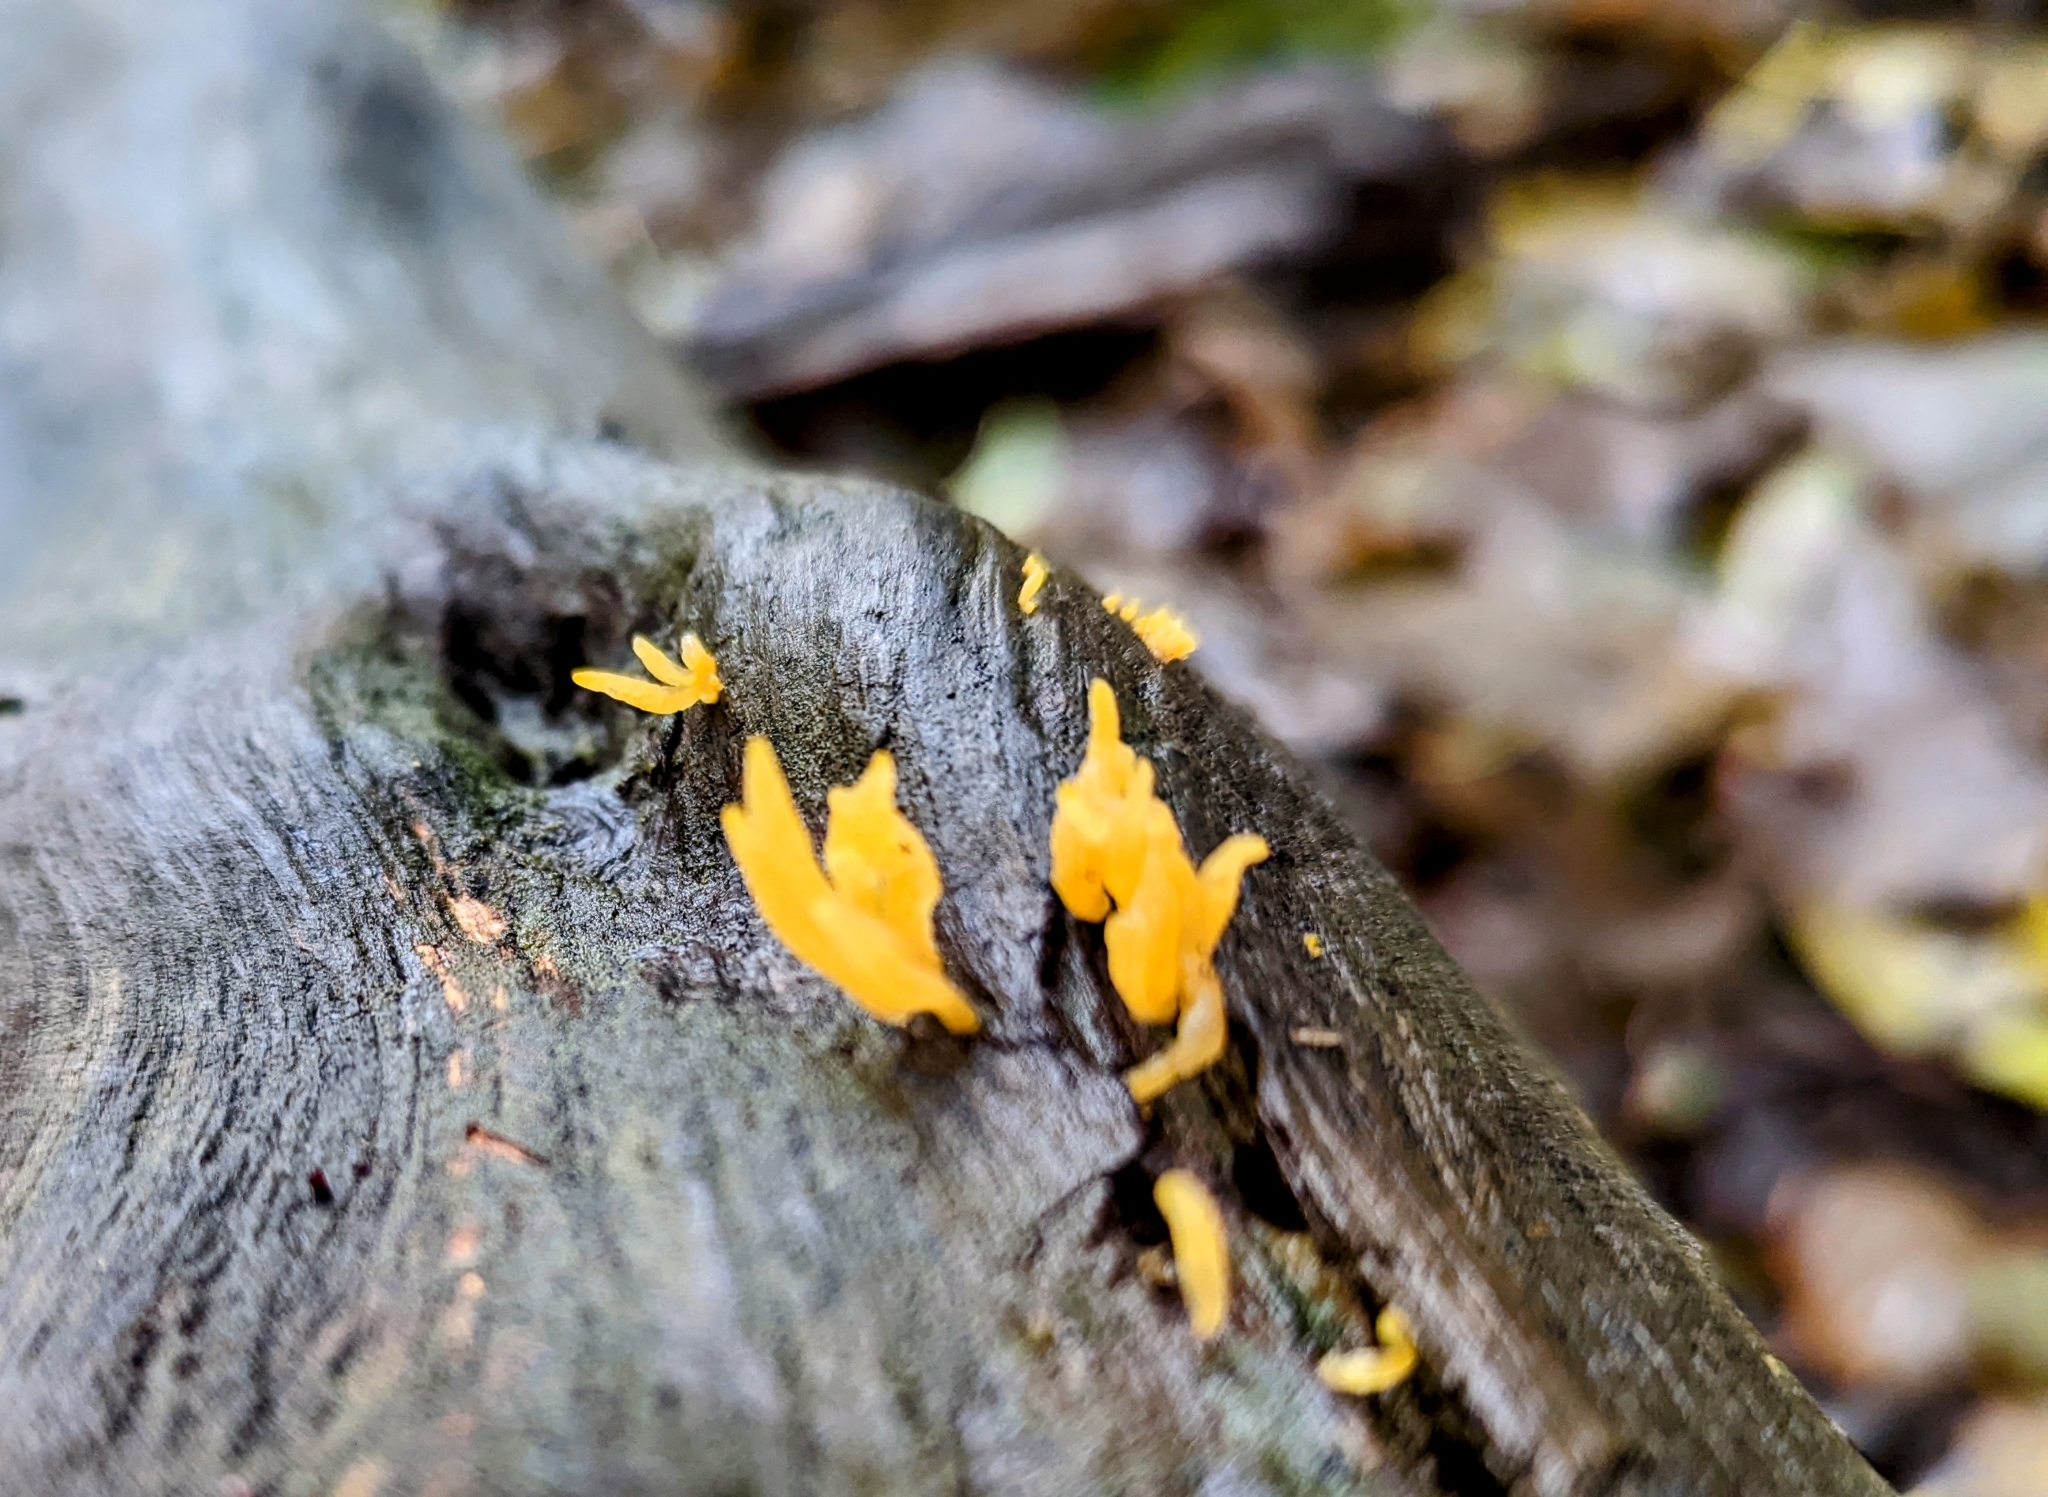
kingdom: Fungi
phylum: Basidiomycota
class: Dacrymycetes
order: Dacrymycetales
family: Dacrymycetaceae
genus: Calocera
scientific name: Calocera cornea
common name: Small stagshorn
